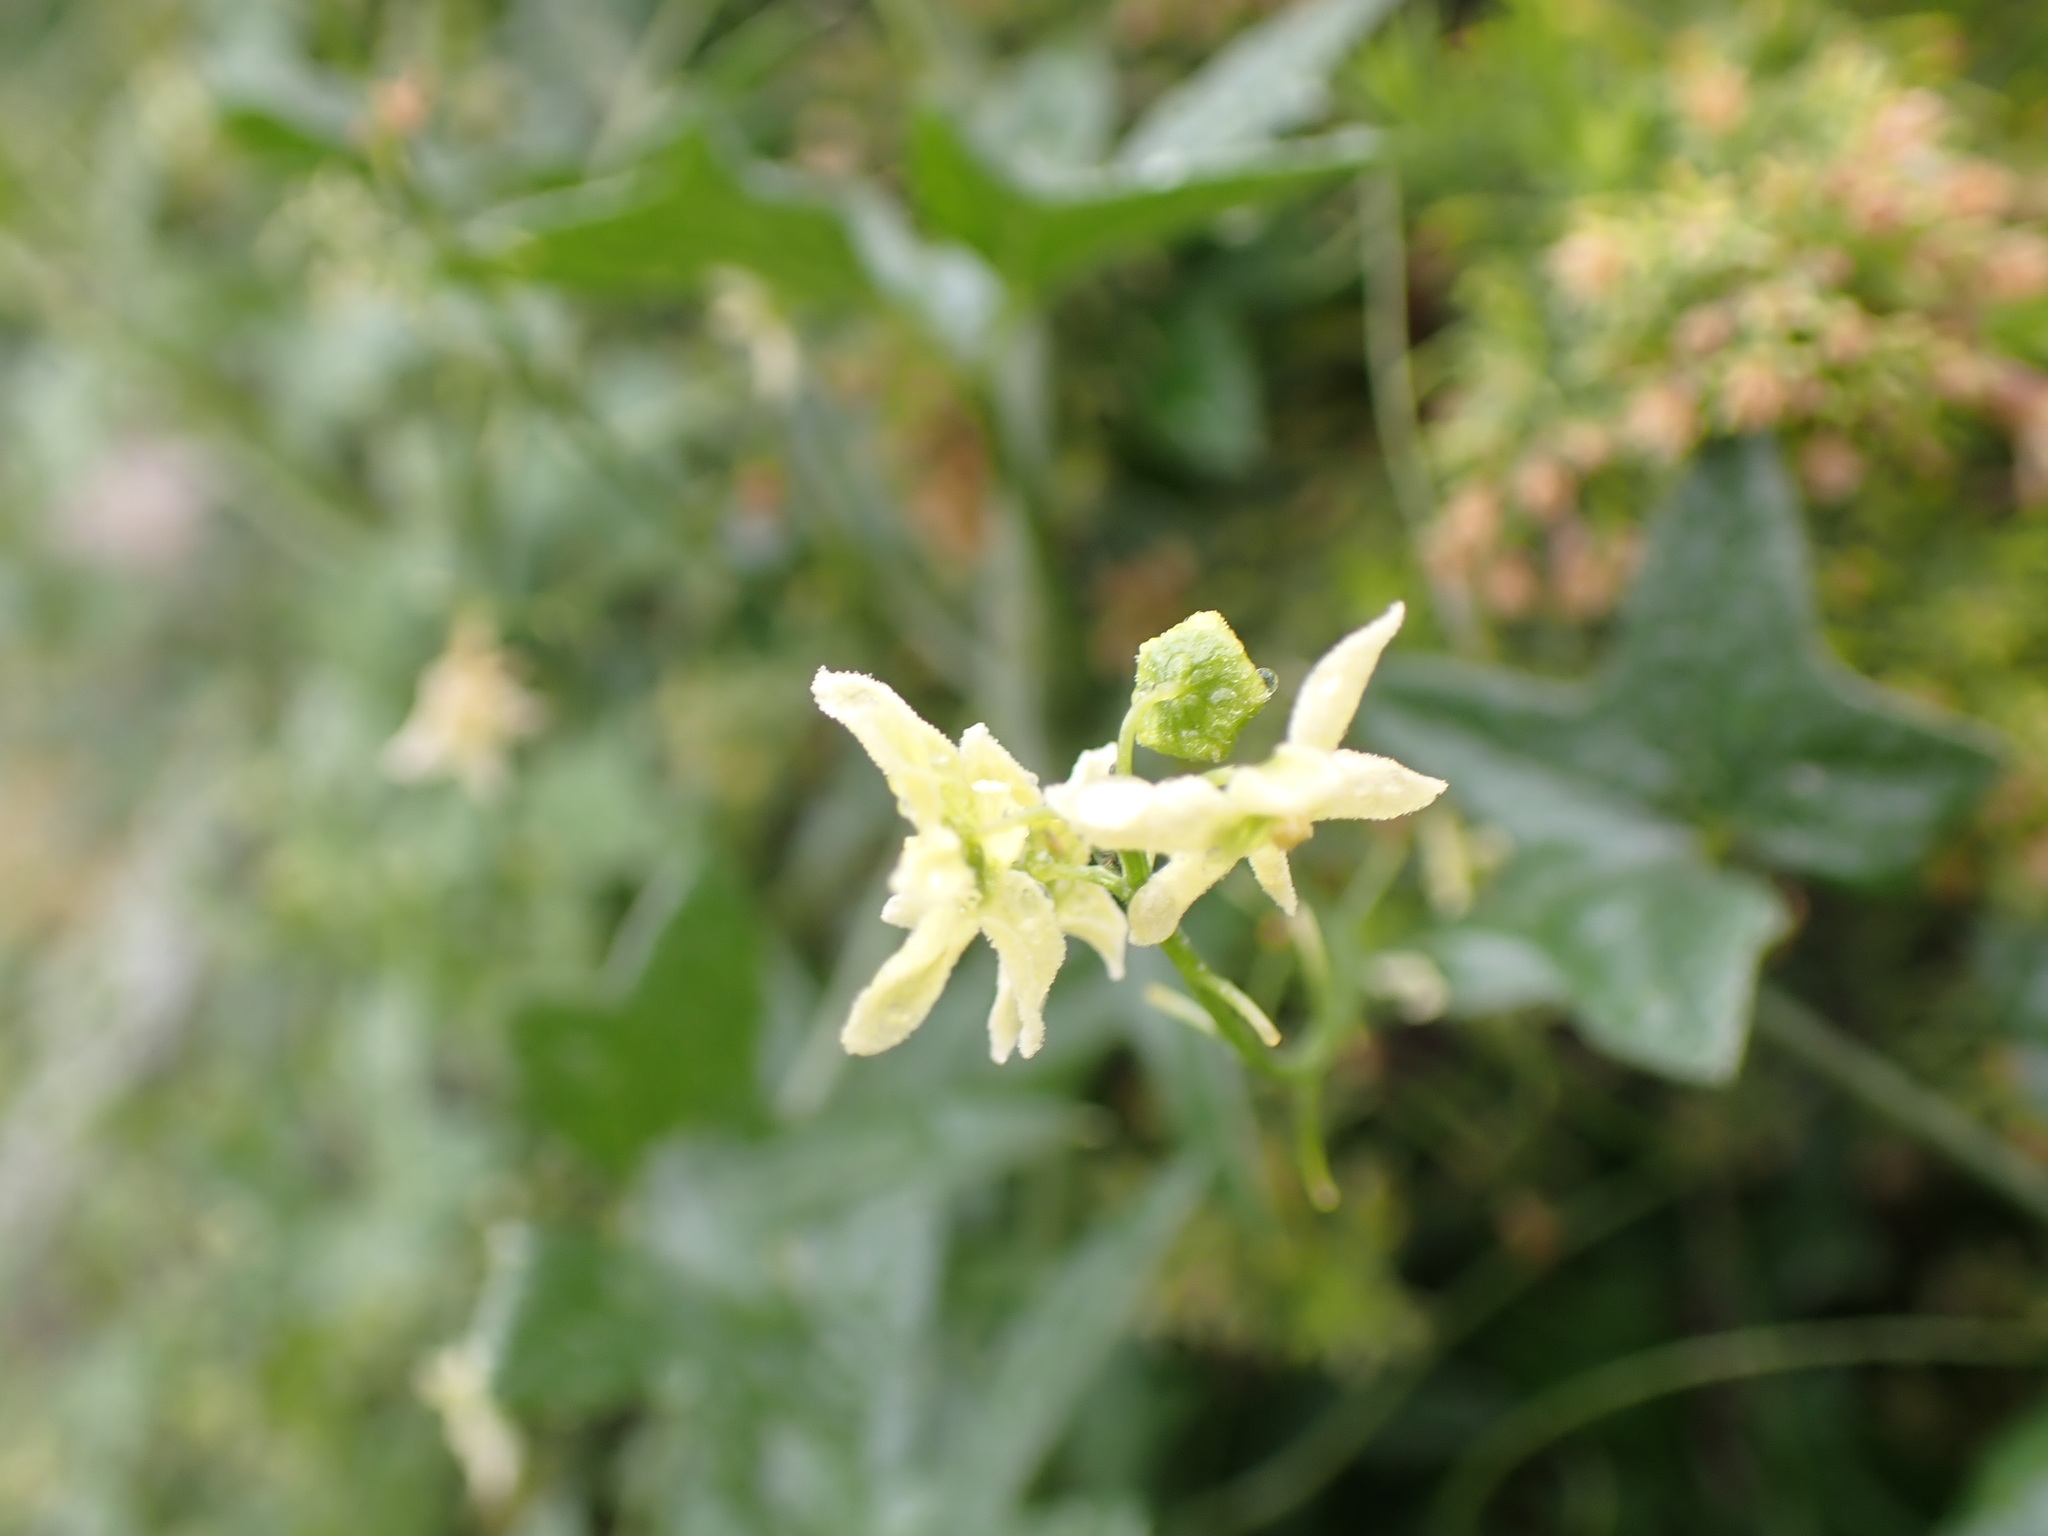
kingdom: Plantae
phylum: Tracheophyta
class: Magnoliopsida
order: Cucurbitales
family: Cucurbitaceae
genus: Marah
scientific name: Marah gilensis
